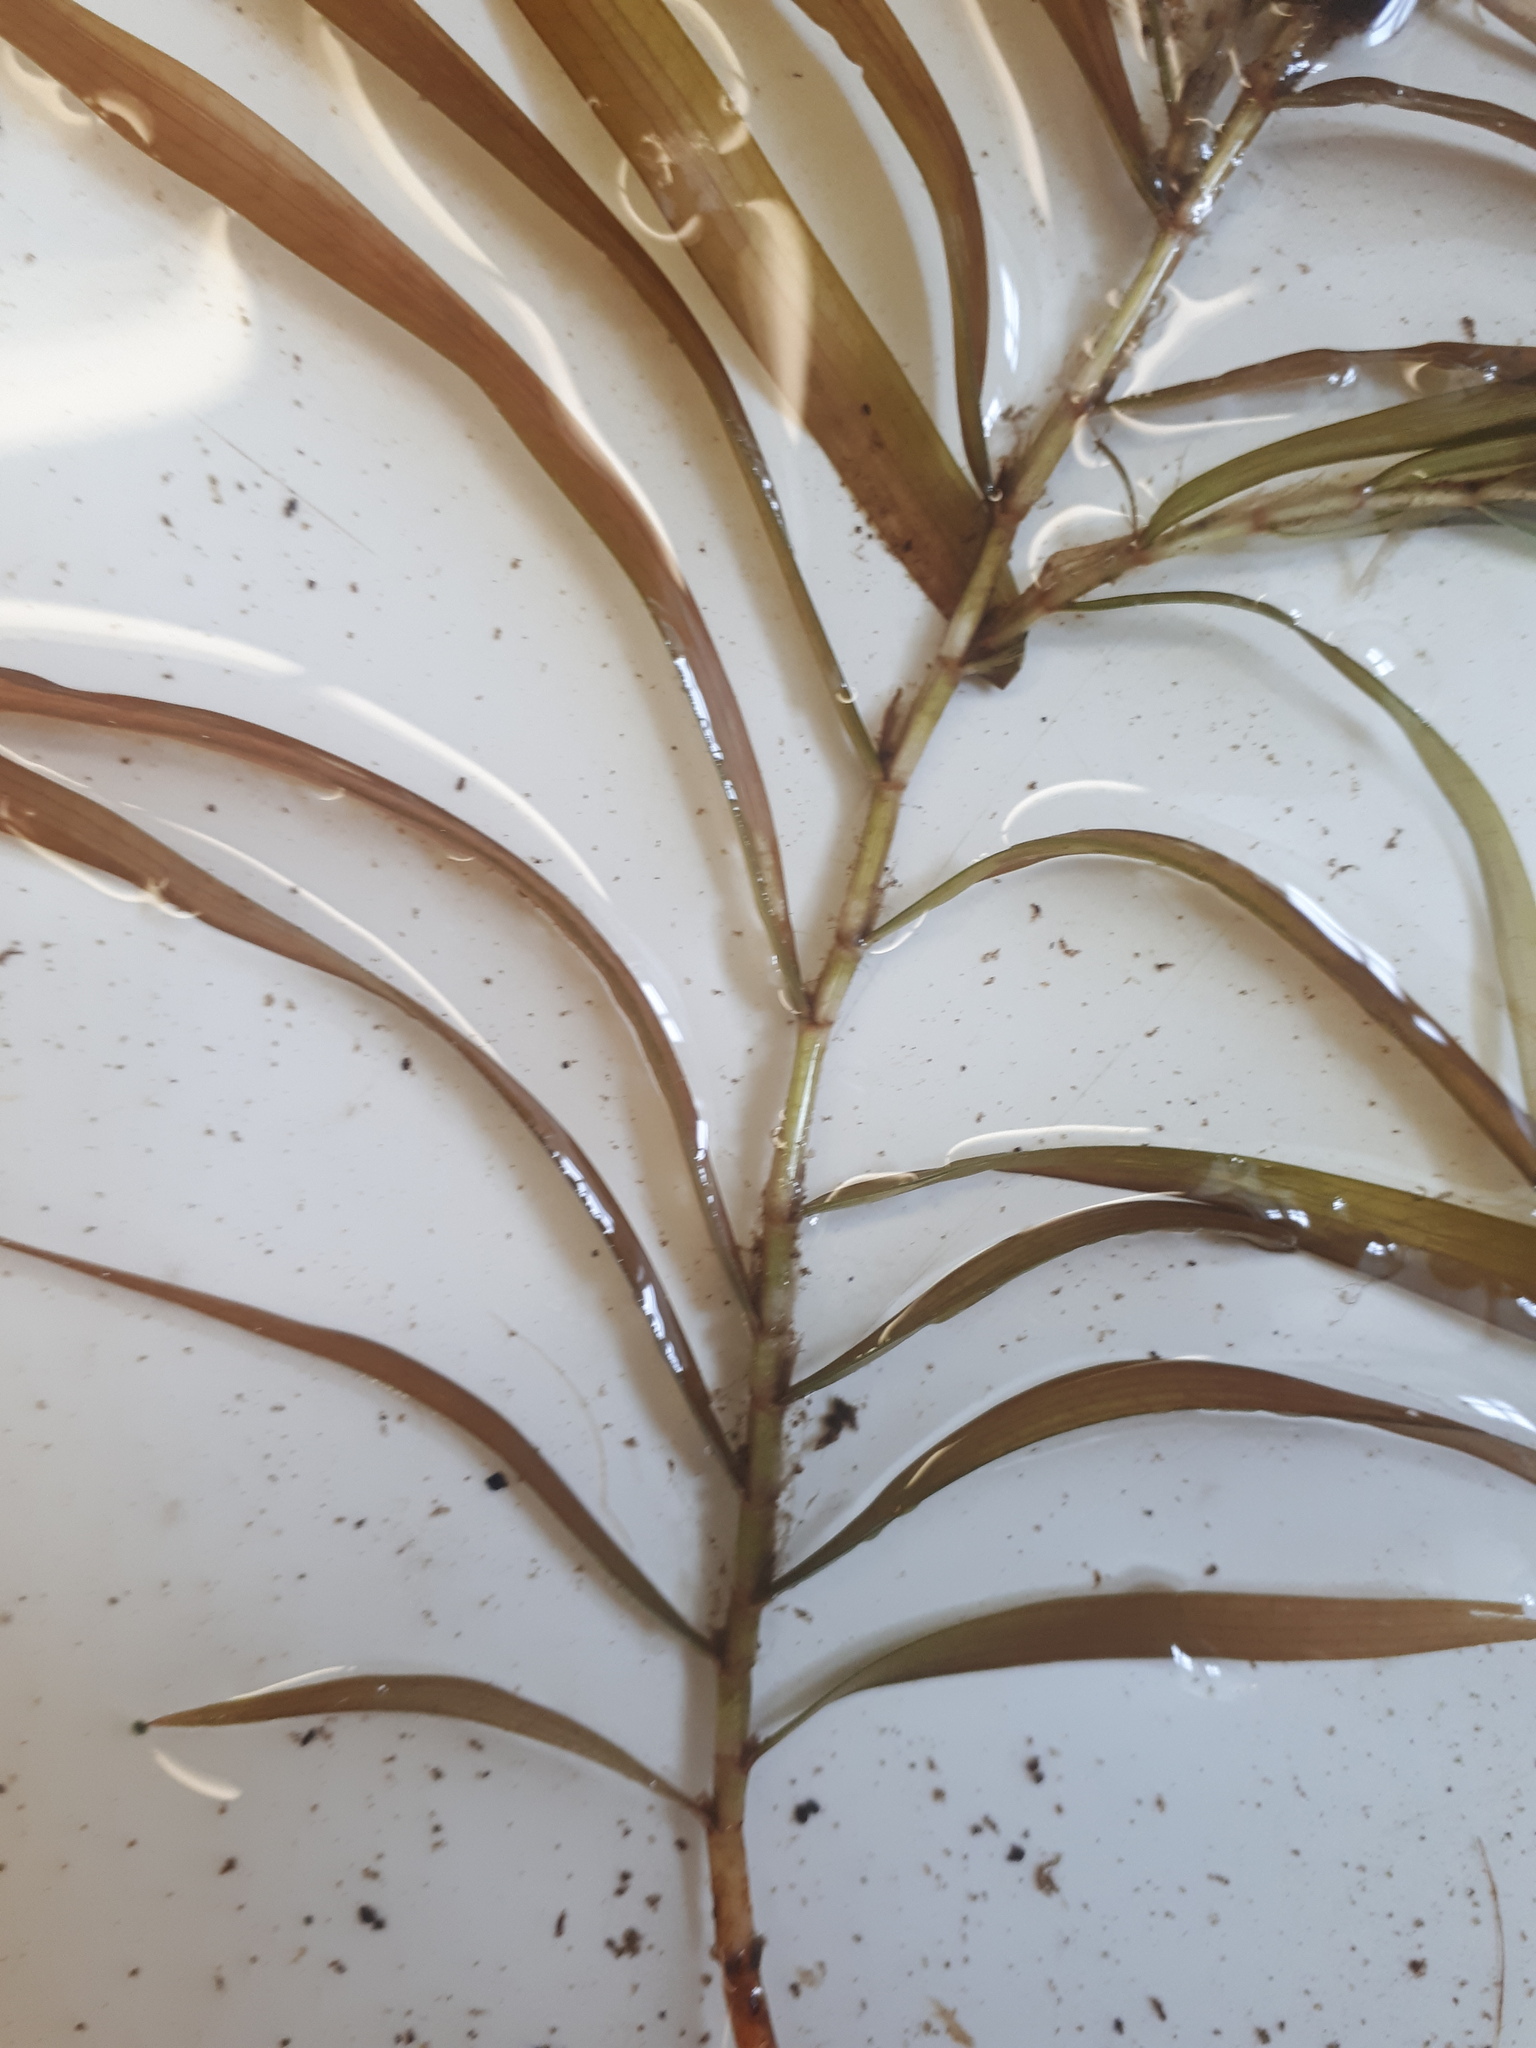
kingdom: Plantae
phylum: Tracheophyta
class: Liliopsida
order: Alismatales
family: Potamogetonaceae
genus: Potamogeton
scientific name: Potamogeton epihydrus
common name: American pondweed
